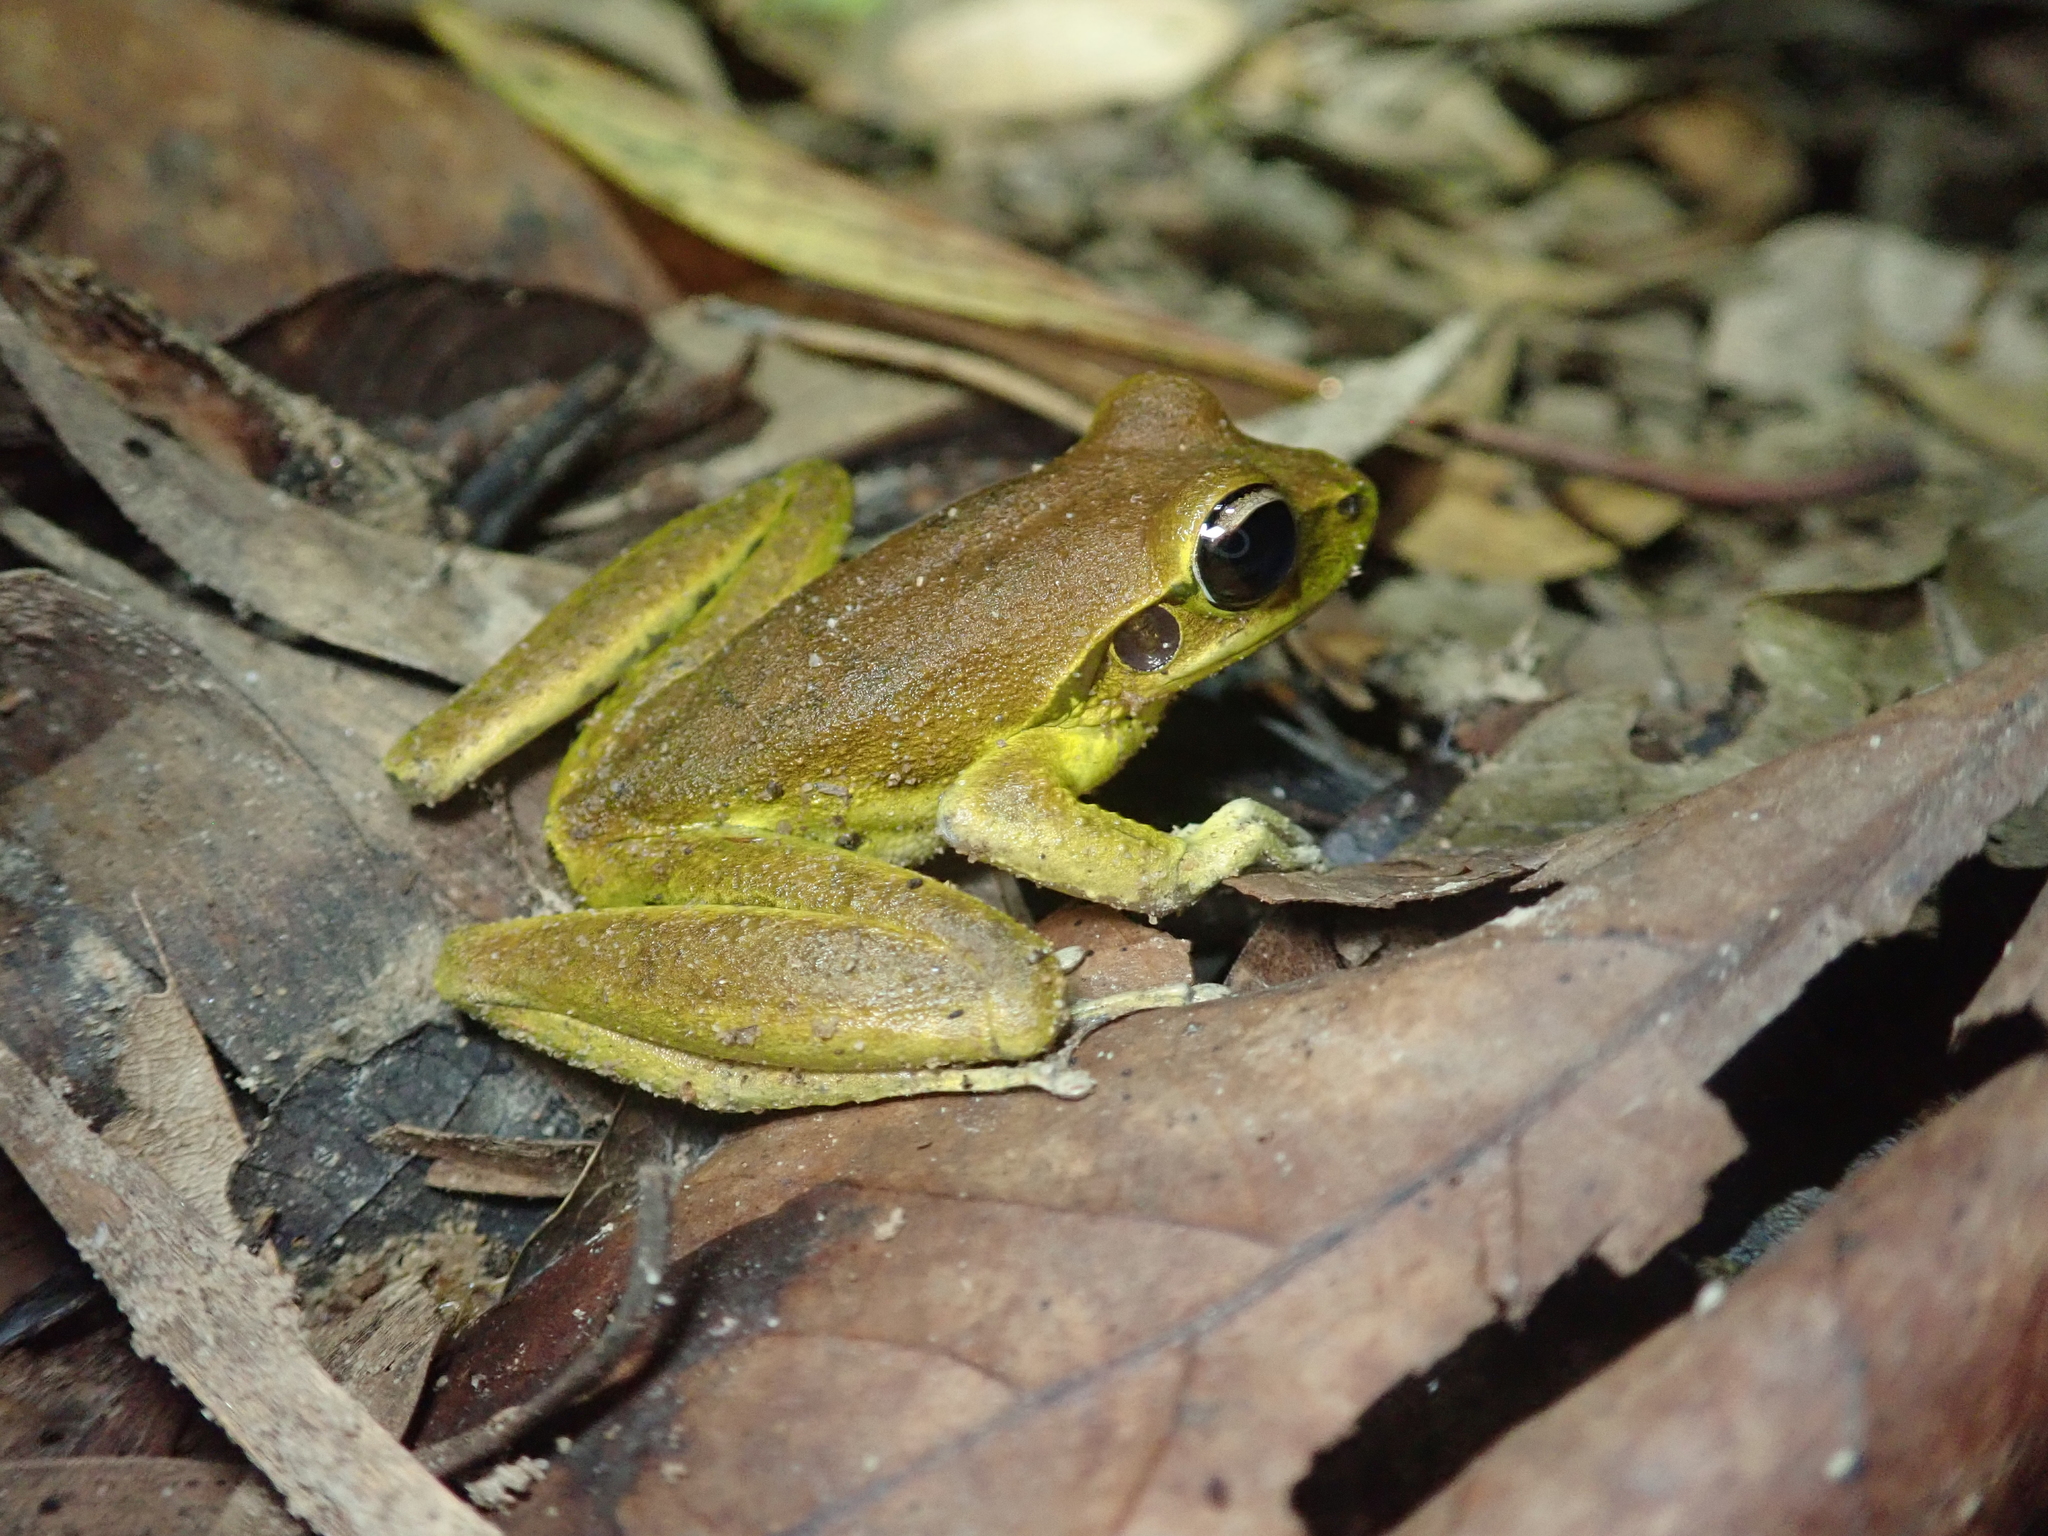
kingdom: Animalia
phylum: Chordata
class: Amphibia
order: Anura
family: Hylidae
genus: Ranoidea
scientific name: Ranoidea
